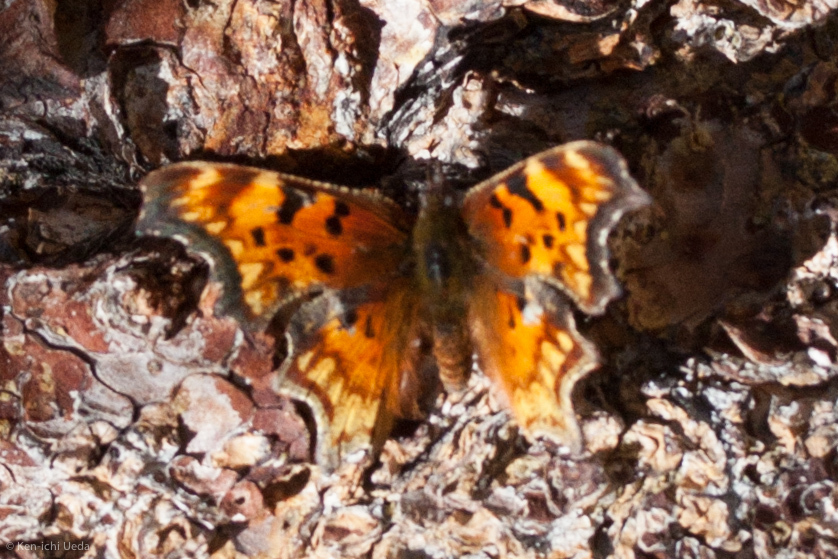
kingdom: Animalia
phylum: Arthropoda
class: Insecta
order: Lepidoptera
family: Nymphalidae
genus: Polygonia
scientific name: Polygonia gracilis
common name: Hoary comma
